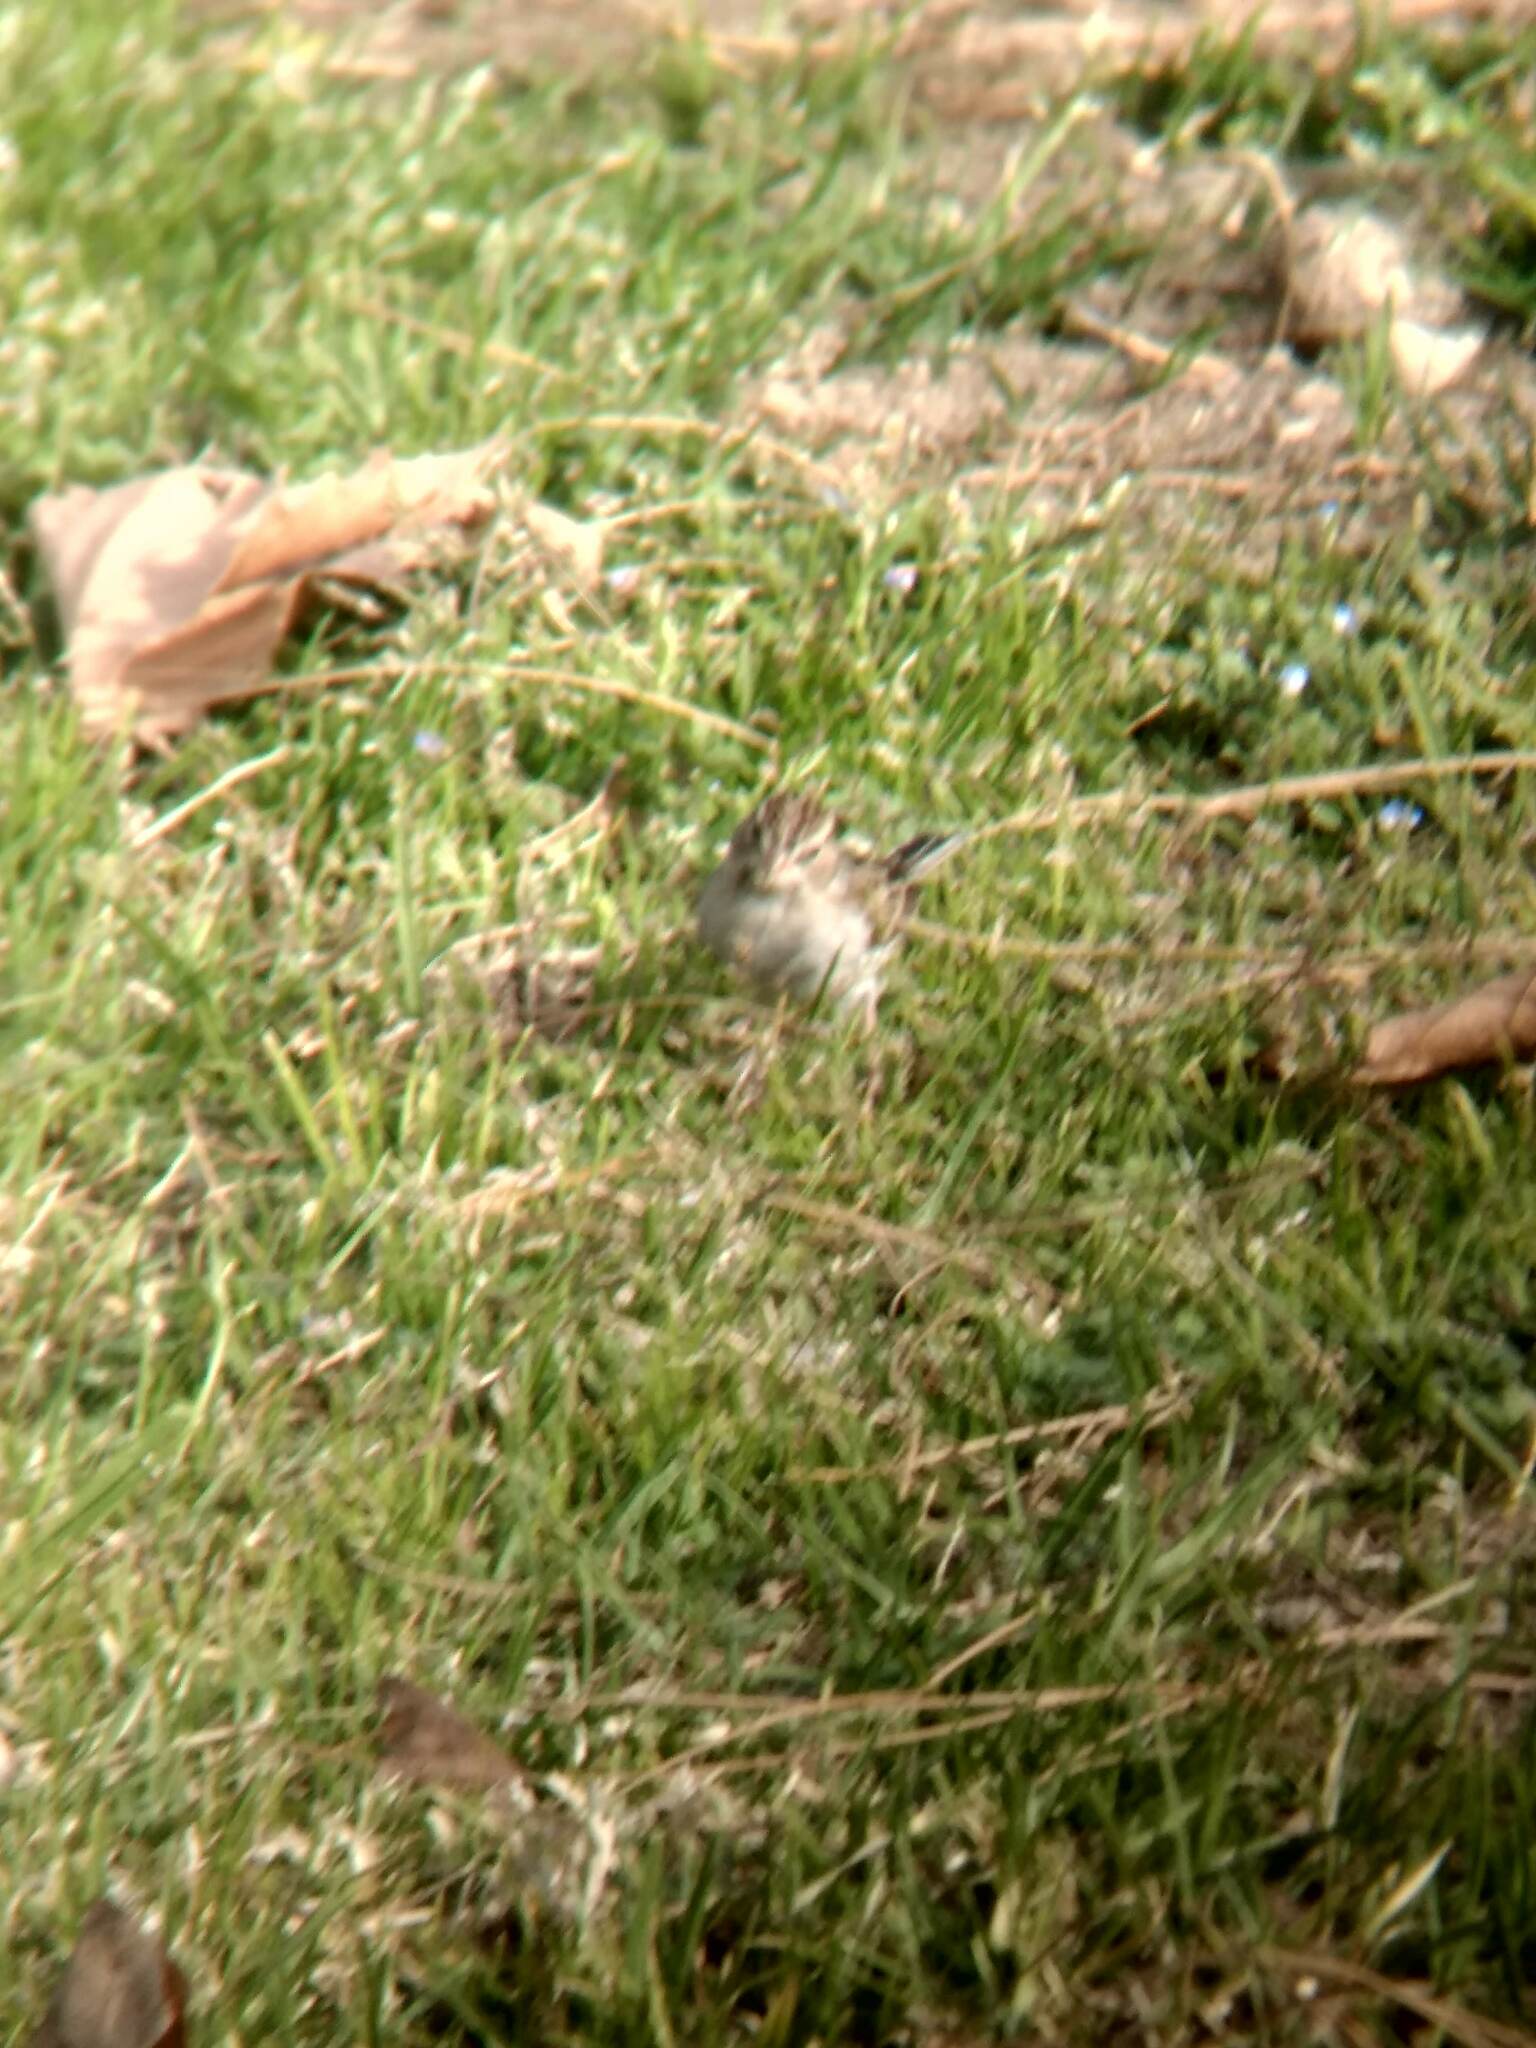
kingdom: Animalia
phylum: Chordata
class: Aves
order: Passeriformes
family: Passerellidae
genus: Spizella
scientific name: Spizella passerina
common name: Chipping sparrow
